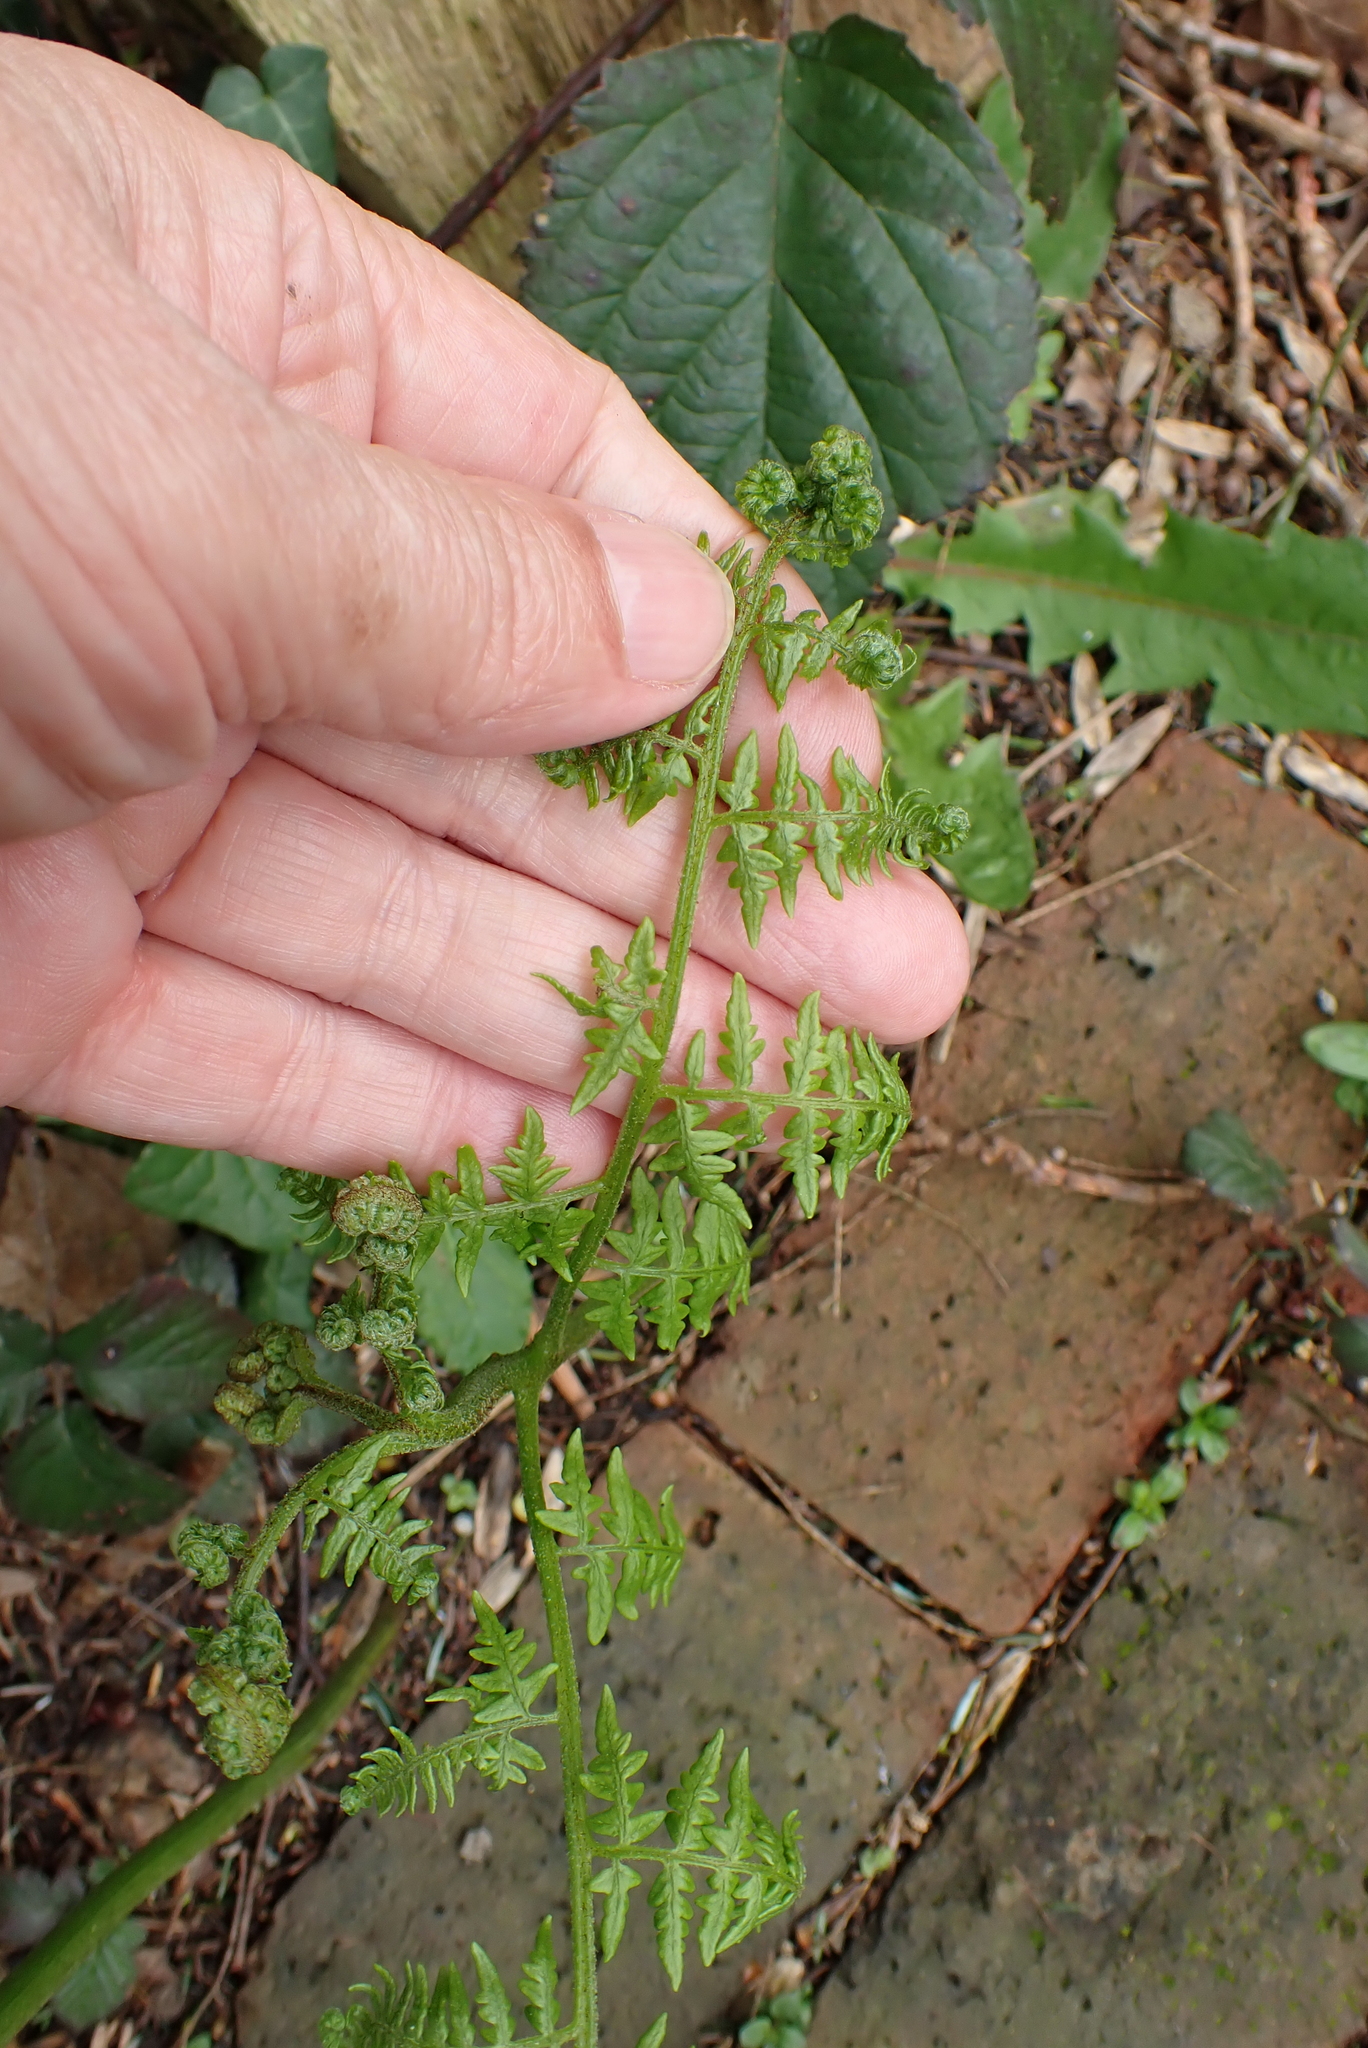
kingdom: Plantae
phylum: Tracheophyta
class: Polypodiopsida
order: Polypodiales
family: Dennstaedtiaceae
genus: Pteridium
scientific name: Pteridium aquilinum
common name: Bracken
